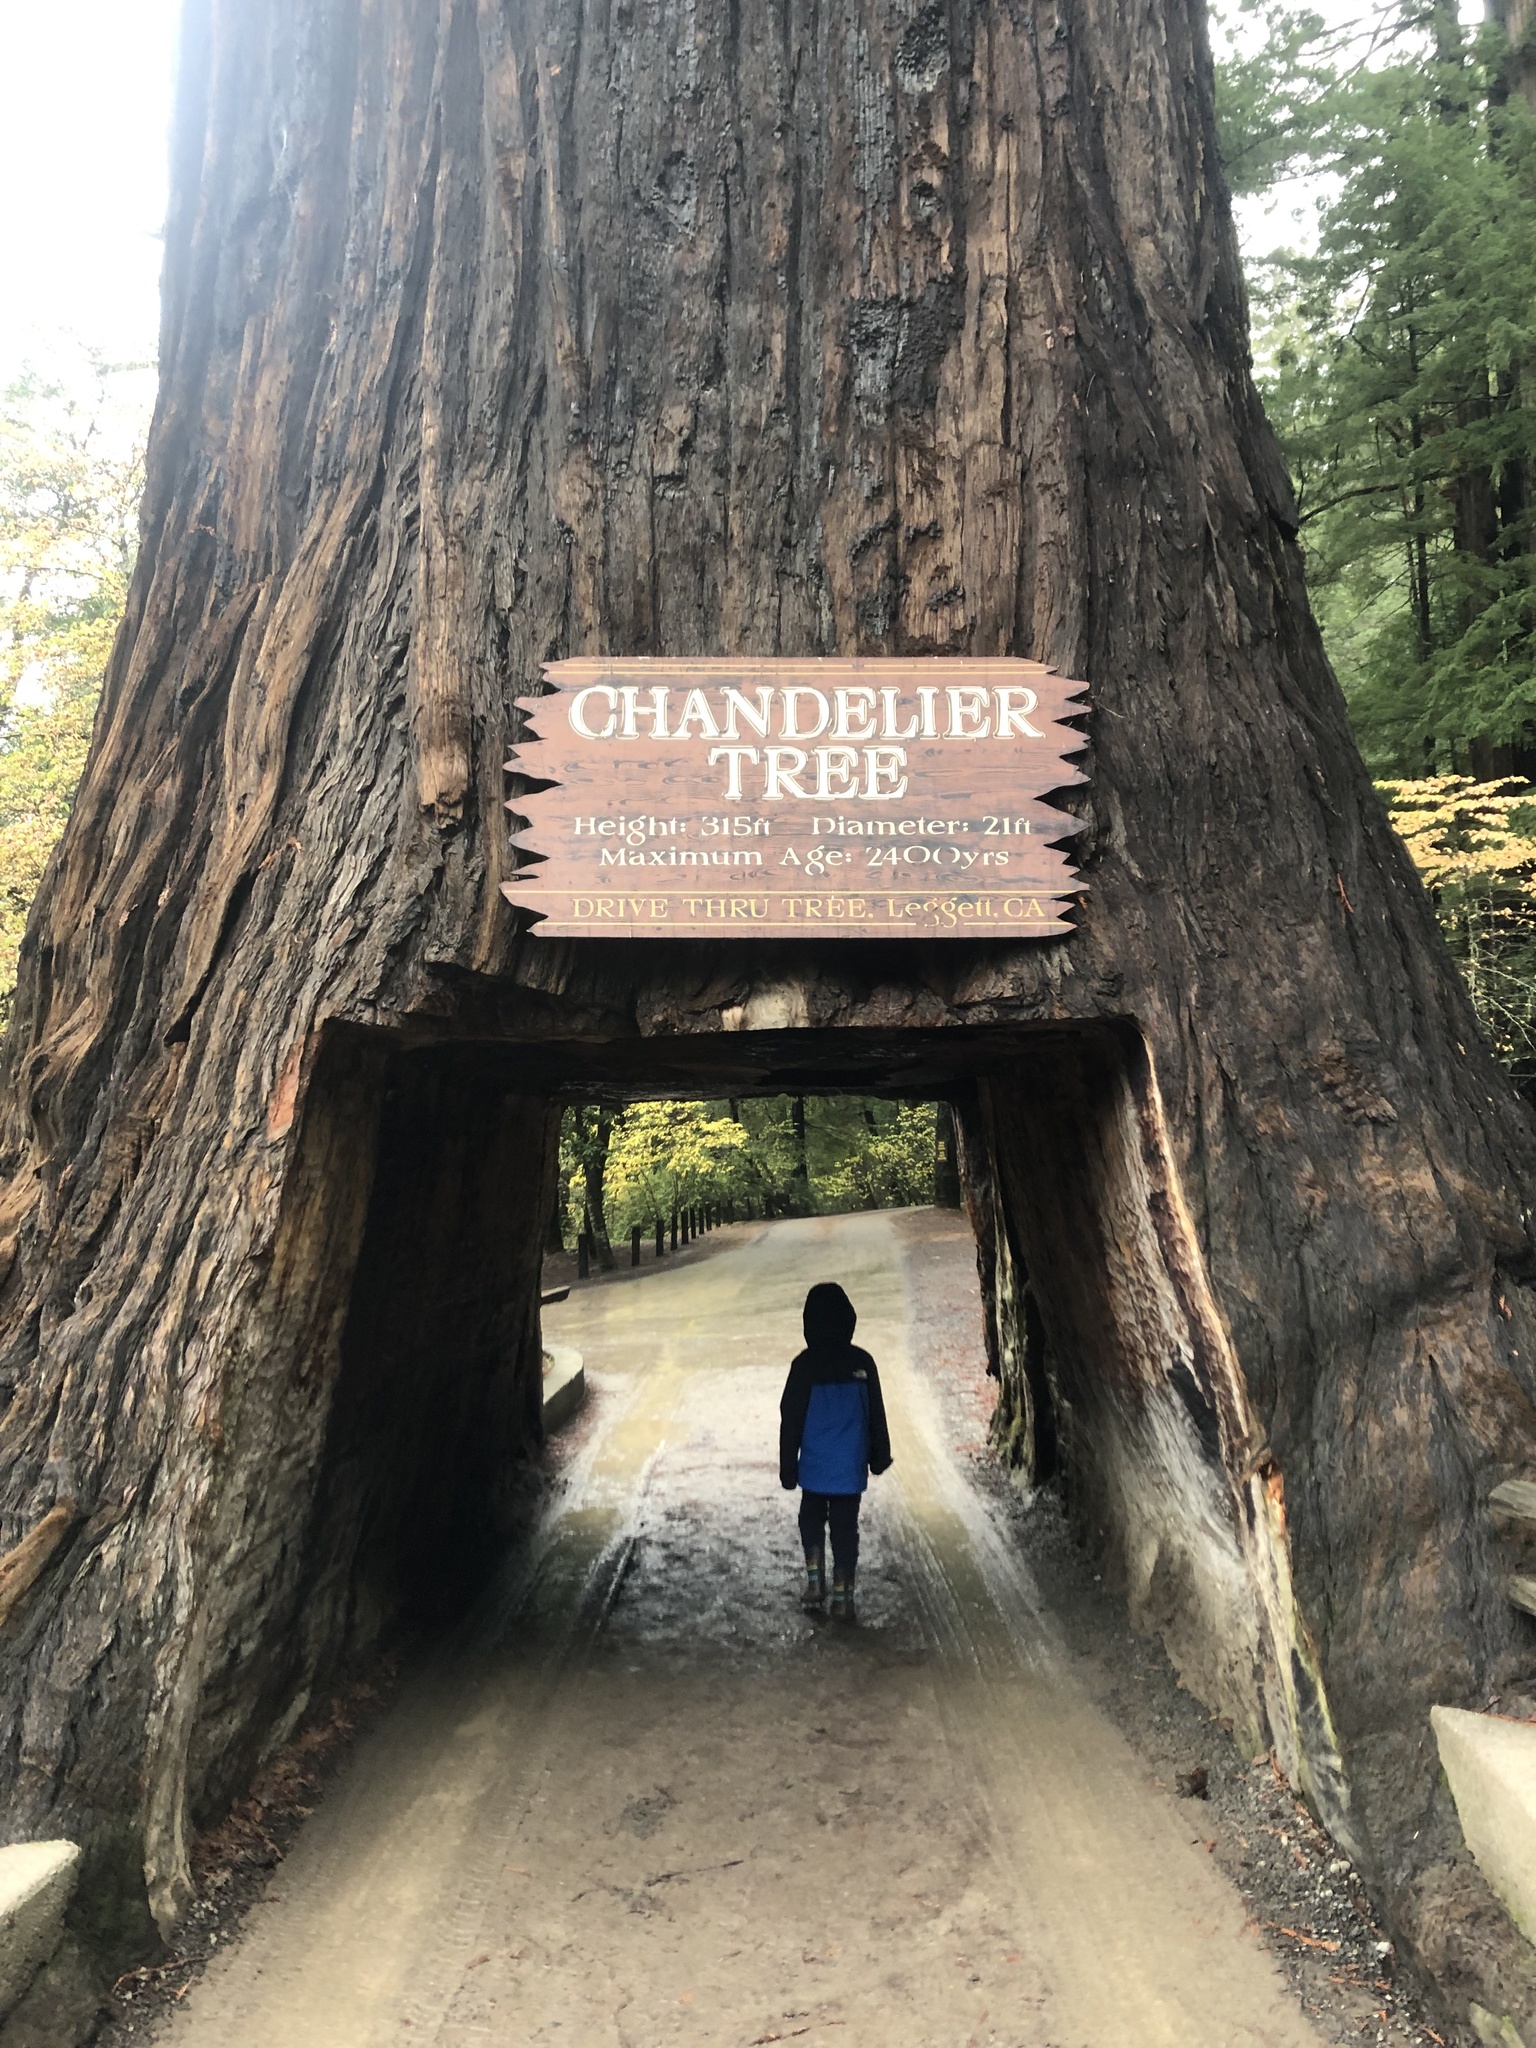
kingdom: Plantae
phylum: Tracheophyta
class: Pinopsida
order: Pinales
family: Cupressaceae
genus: Sequoia
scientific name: Sequoia sempervirens
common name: Coast redwood
